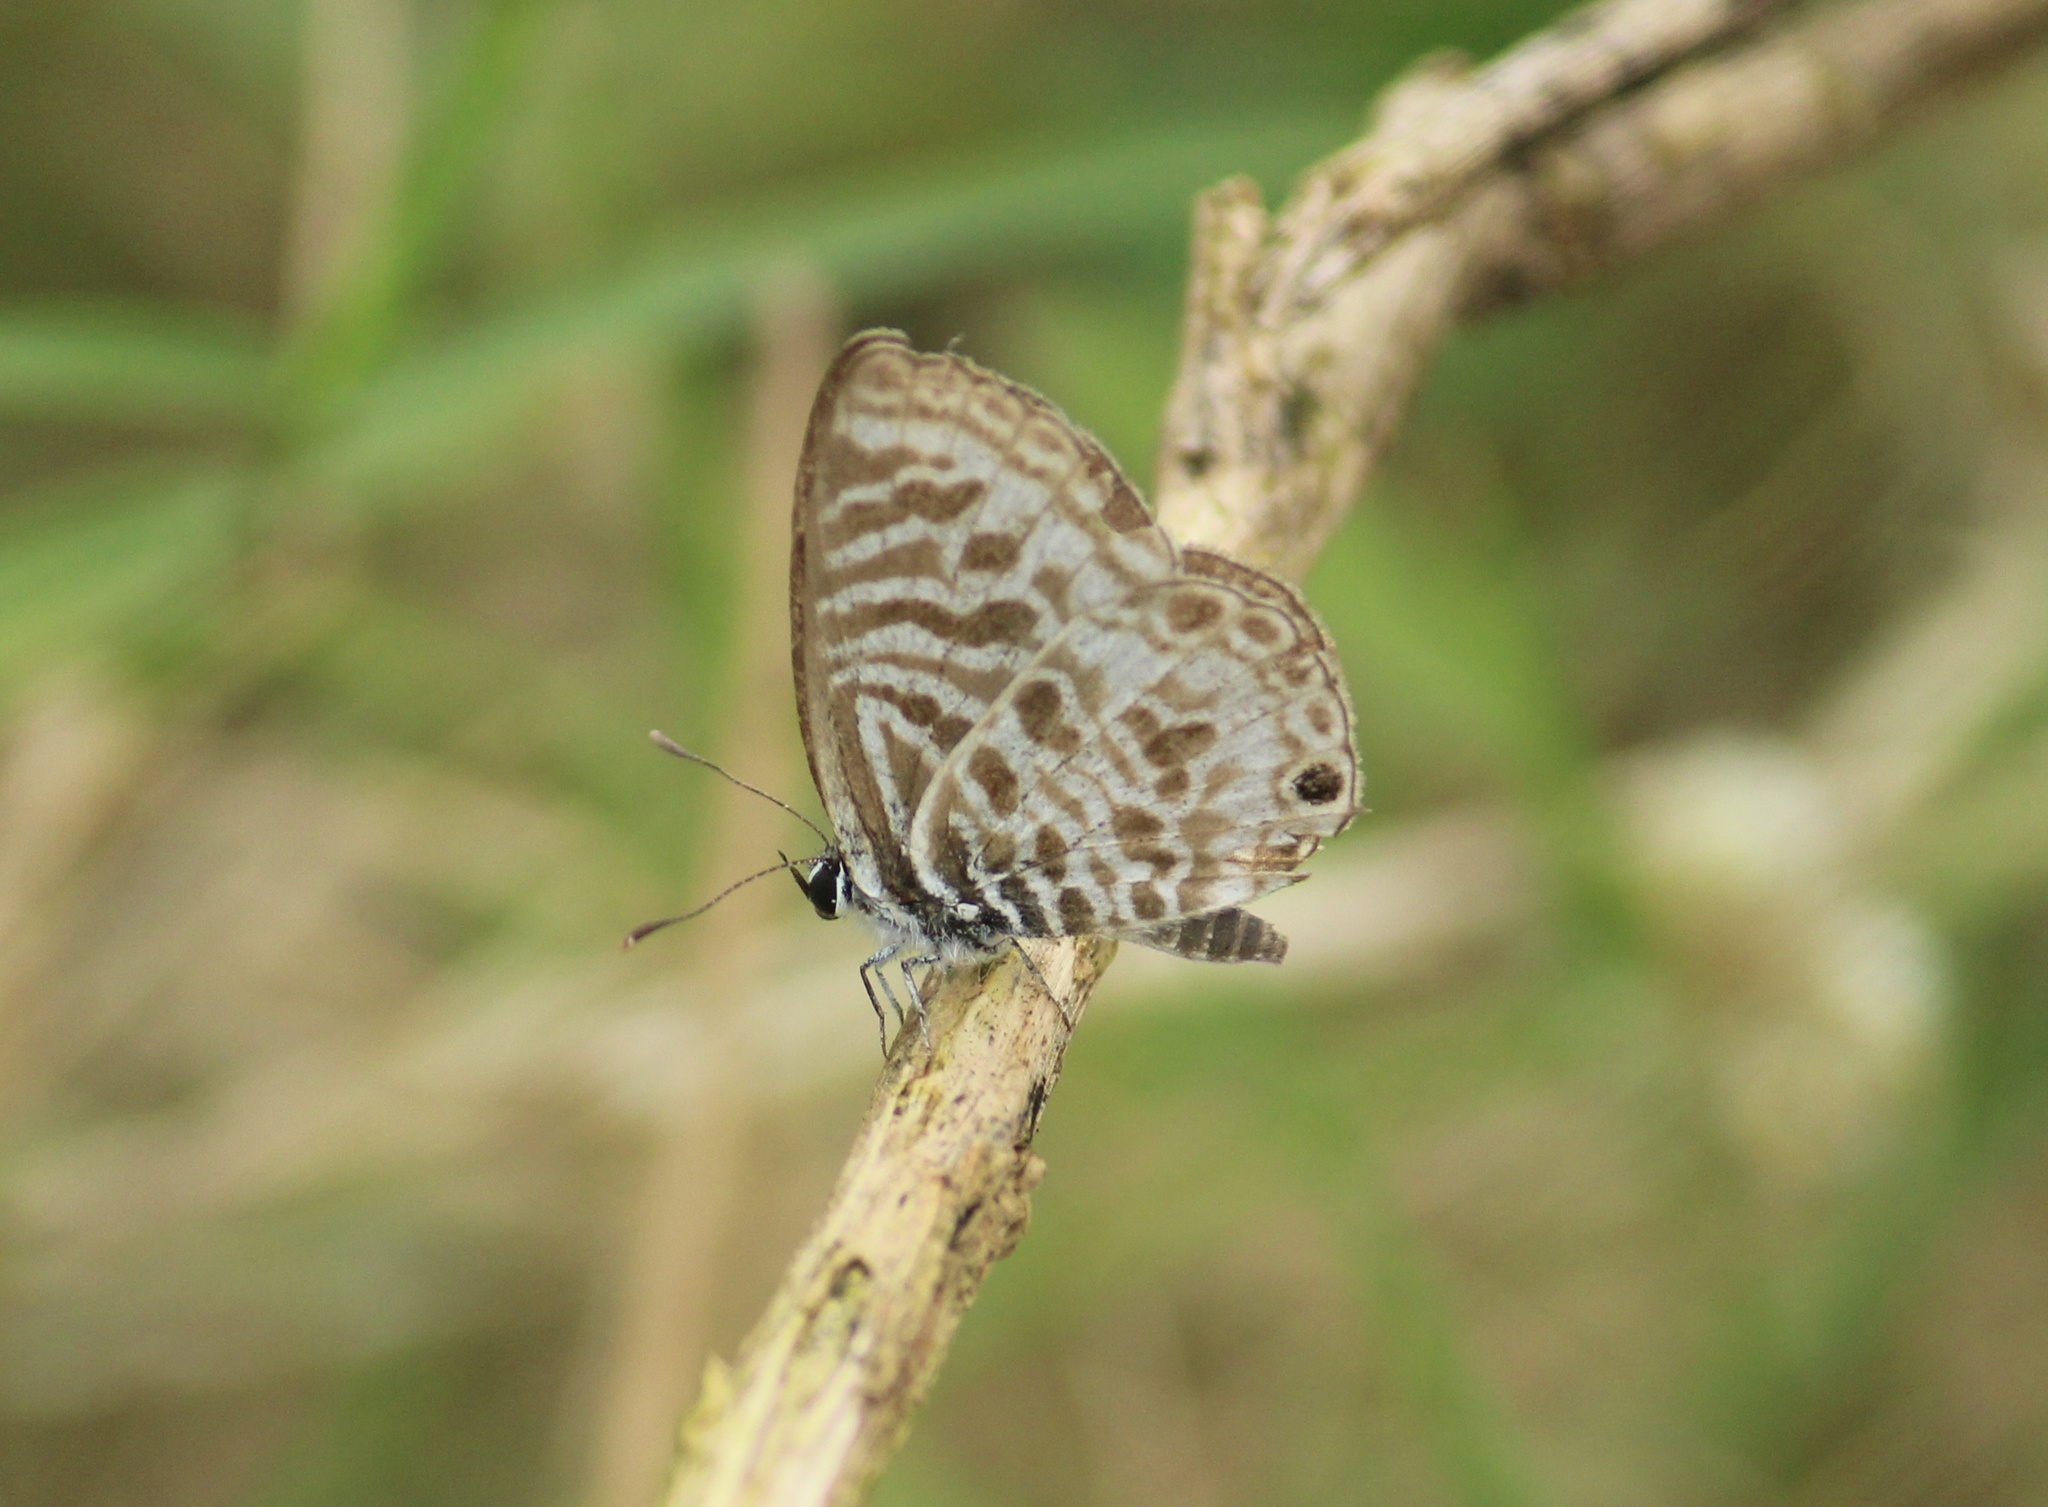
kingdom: Animalia
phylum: Arthropoda
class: Insecta
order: Lepidoptera
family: Lycaenidae
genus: Leptotes
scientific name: Leptotes plinius
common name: Zebra blue
